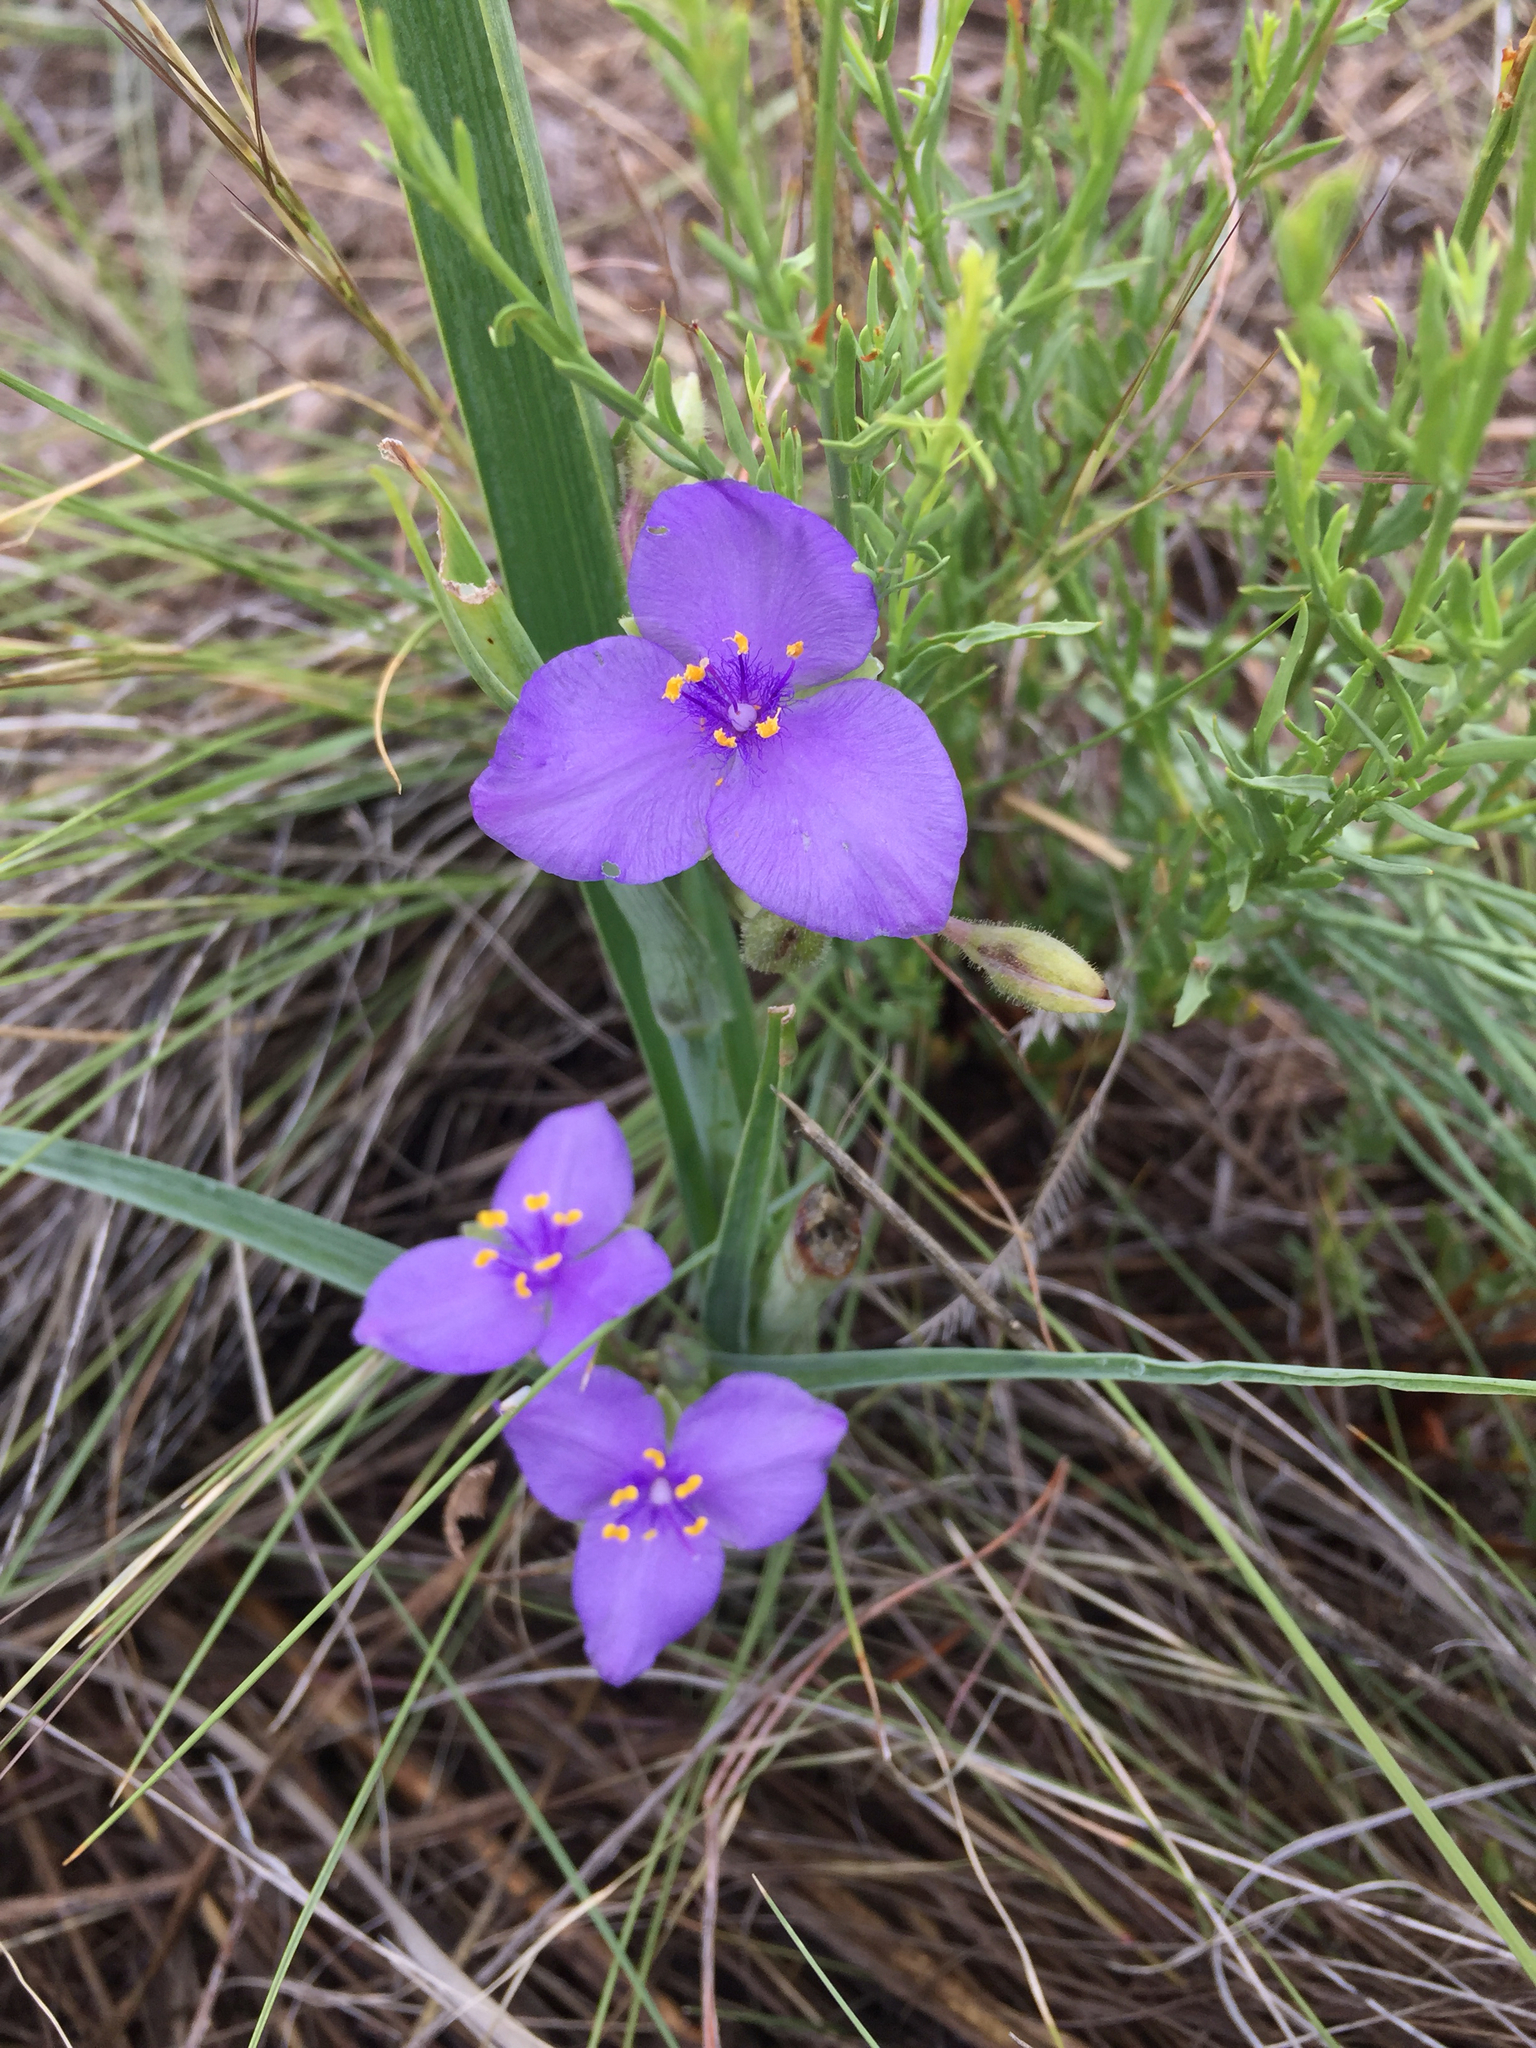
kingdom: Plantae
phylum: Tracheophyta
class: Liliopsida
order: Commelinales
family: Commelinaceae
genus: Tradescantia
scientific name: Tradescantia occidentalis
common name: Prairie spiderwort
